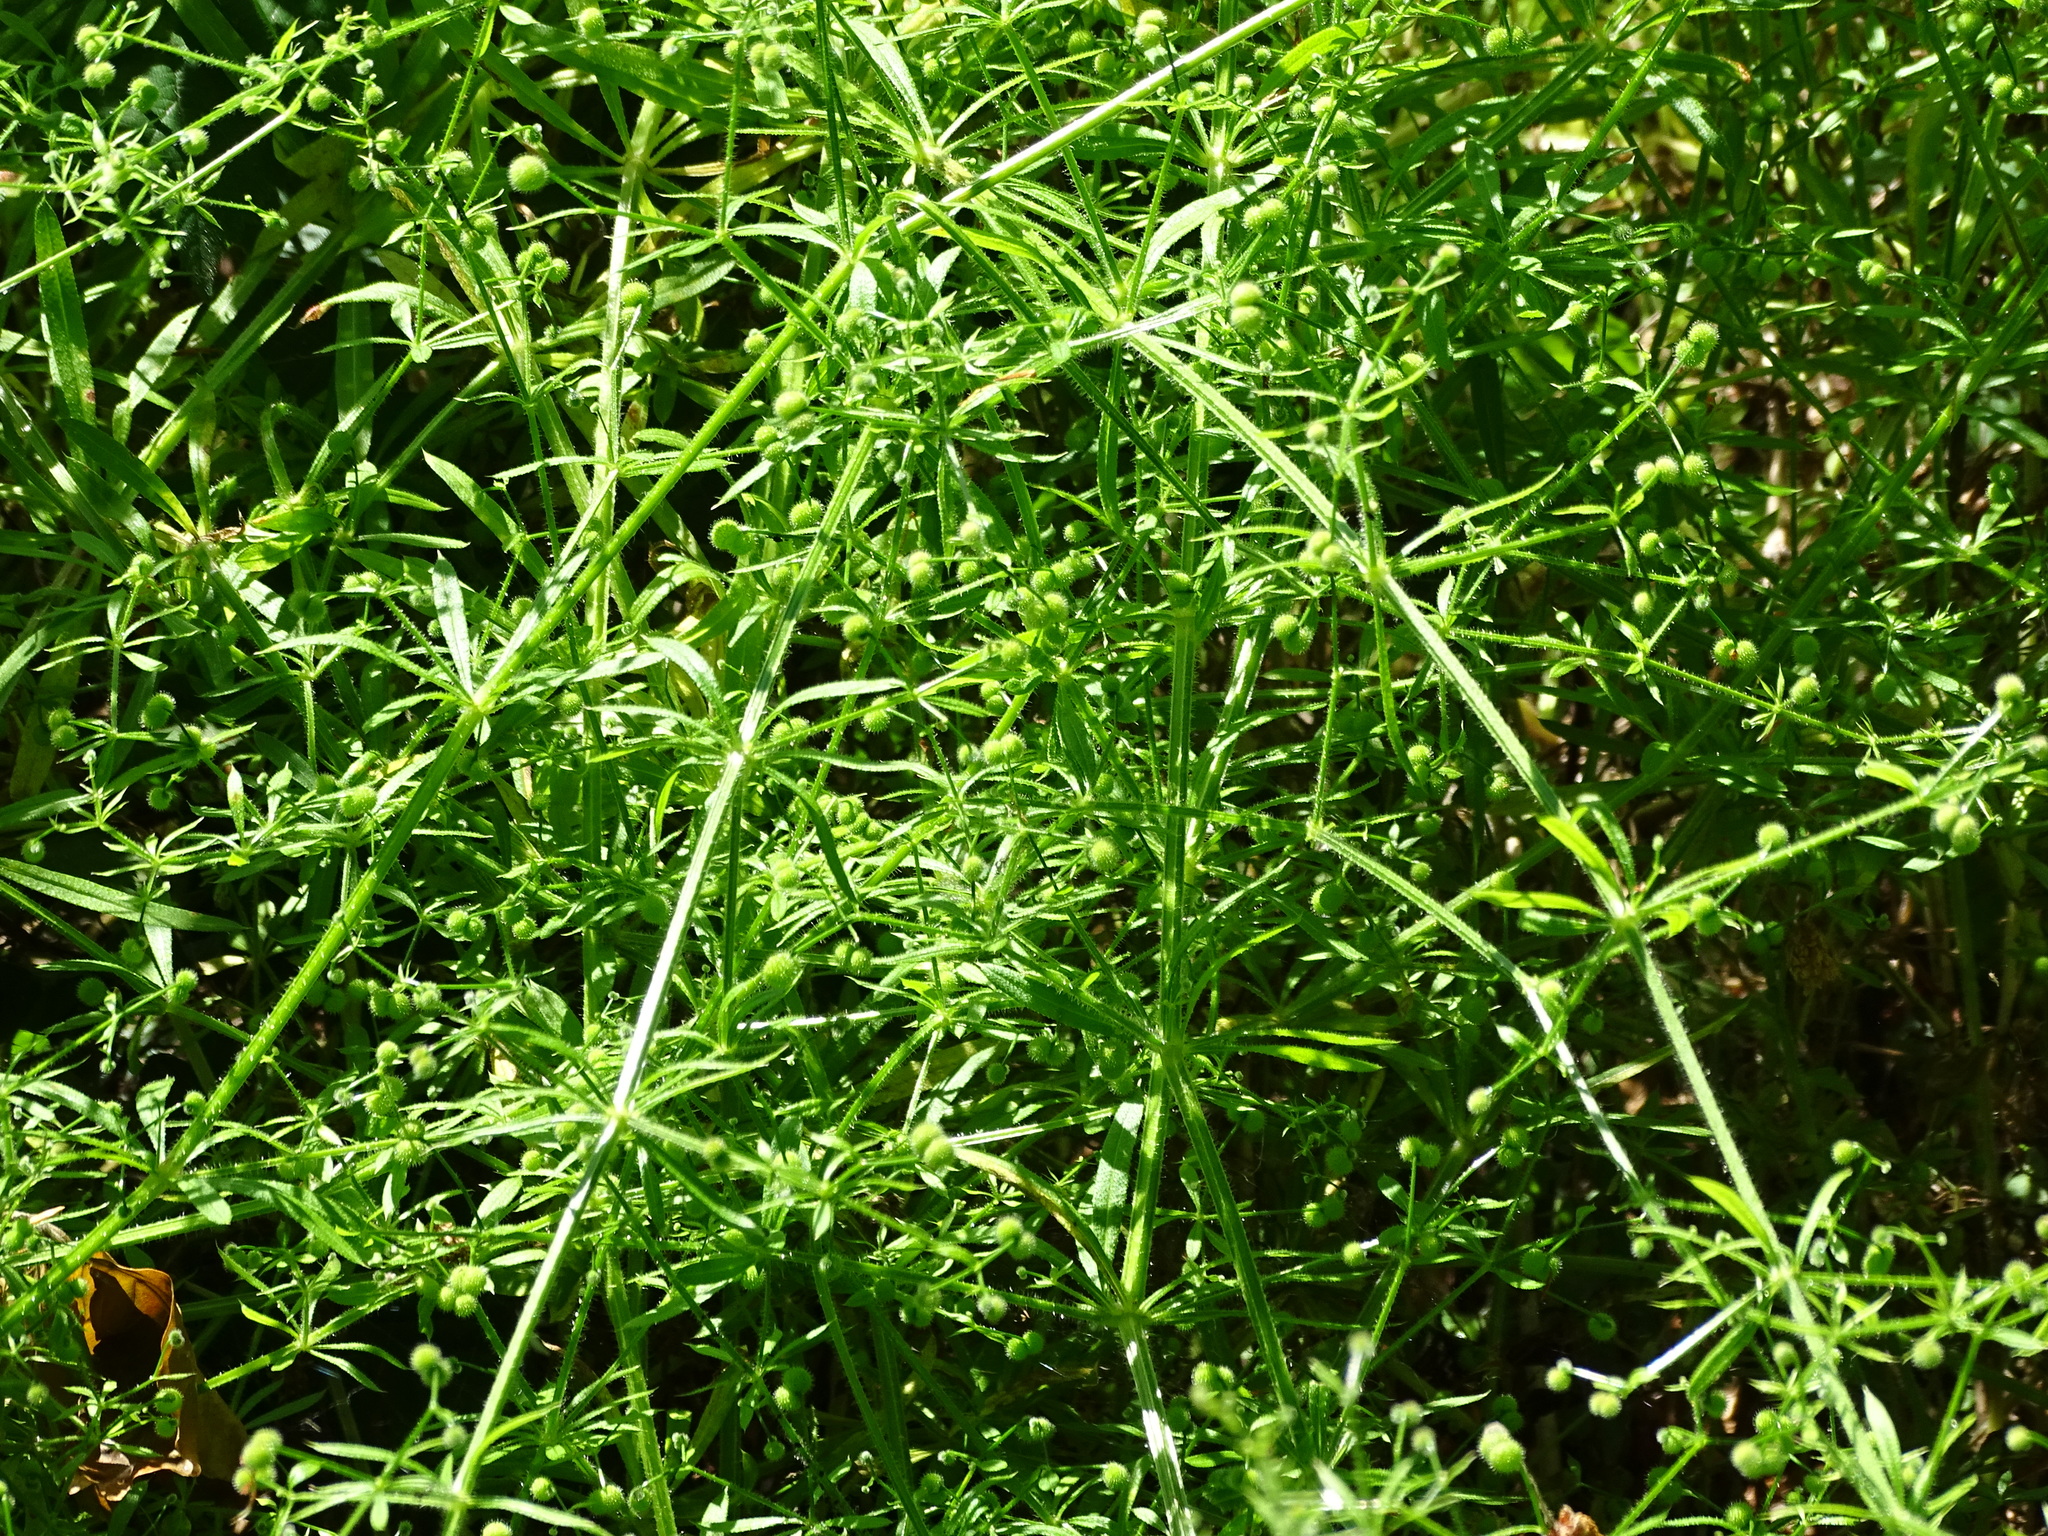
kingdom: Plantae
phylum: Tracheophyta
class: Magnoliopsida
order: Gentianales
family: Rubiaceae
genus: Galium
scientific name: Galium aparine
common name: Cleavers
